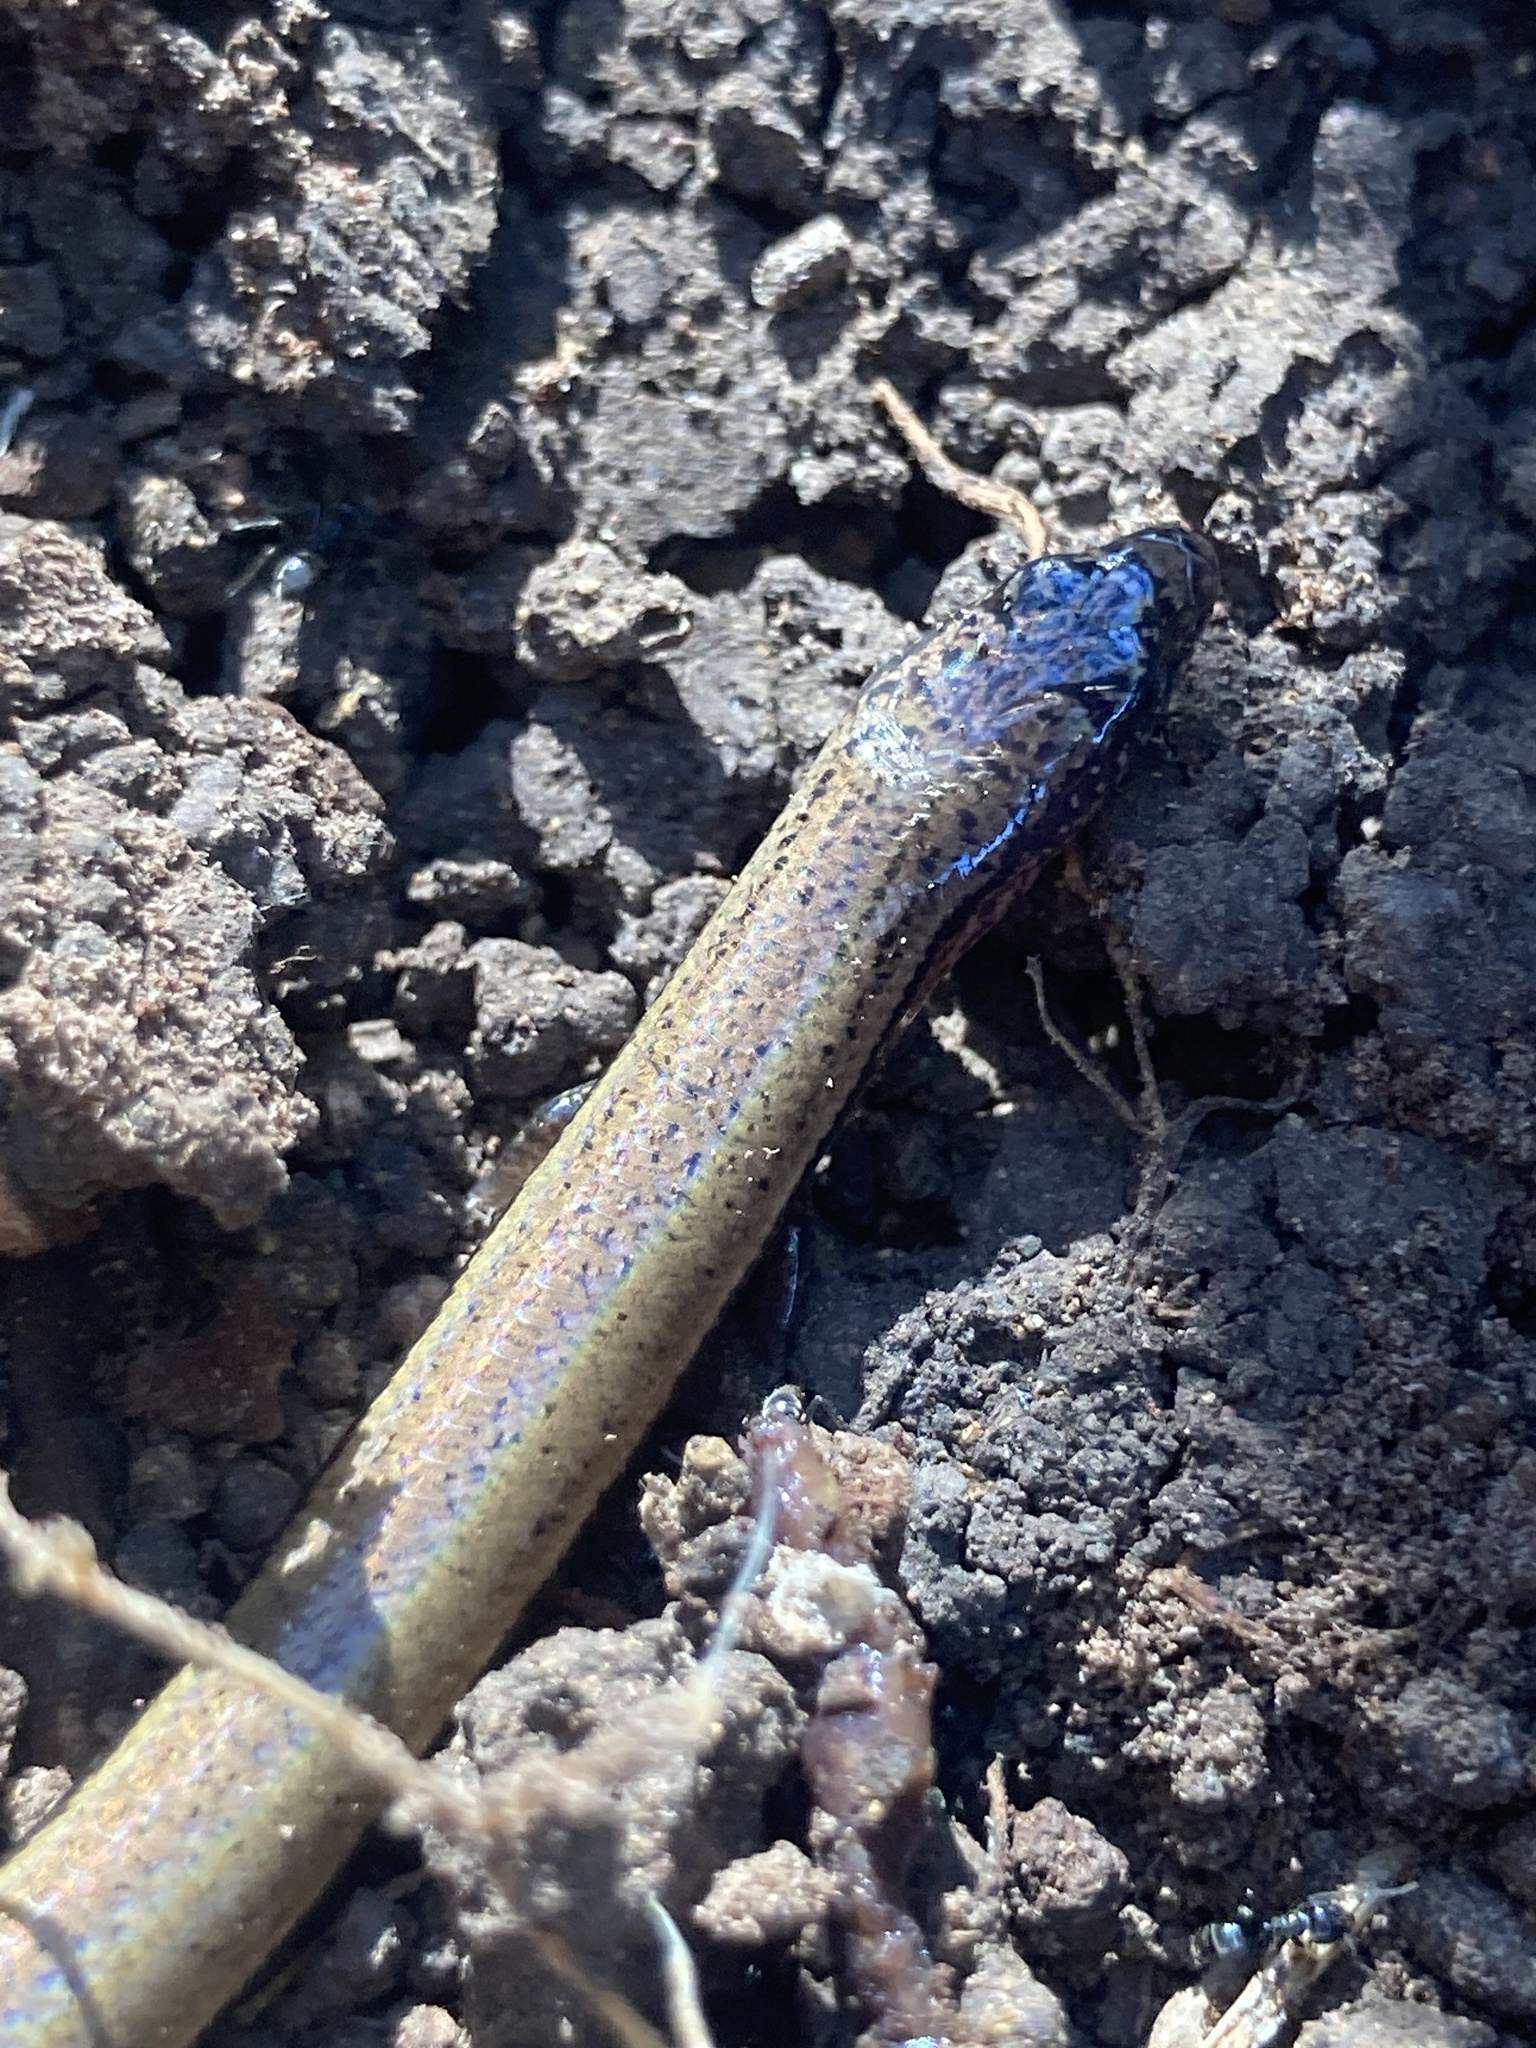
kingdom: Animalia
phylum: Chordata
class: Squamata
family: Scincidae
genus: Saiphos
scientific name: Saiphos equalis
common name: Three-toed skink
